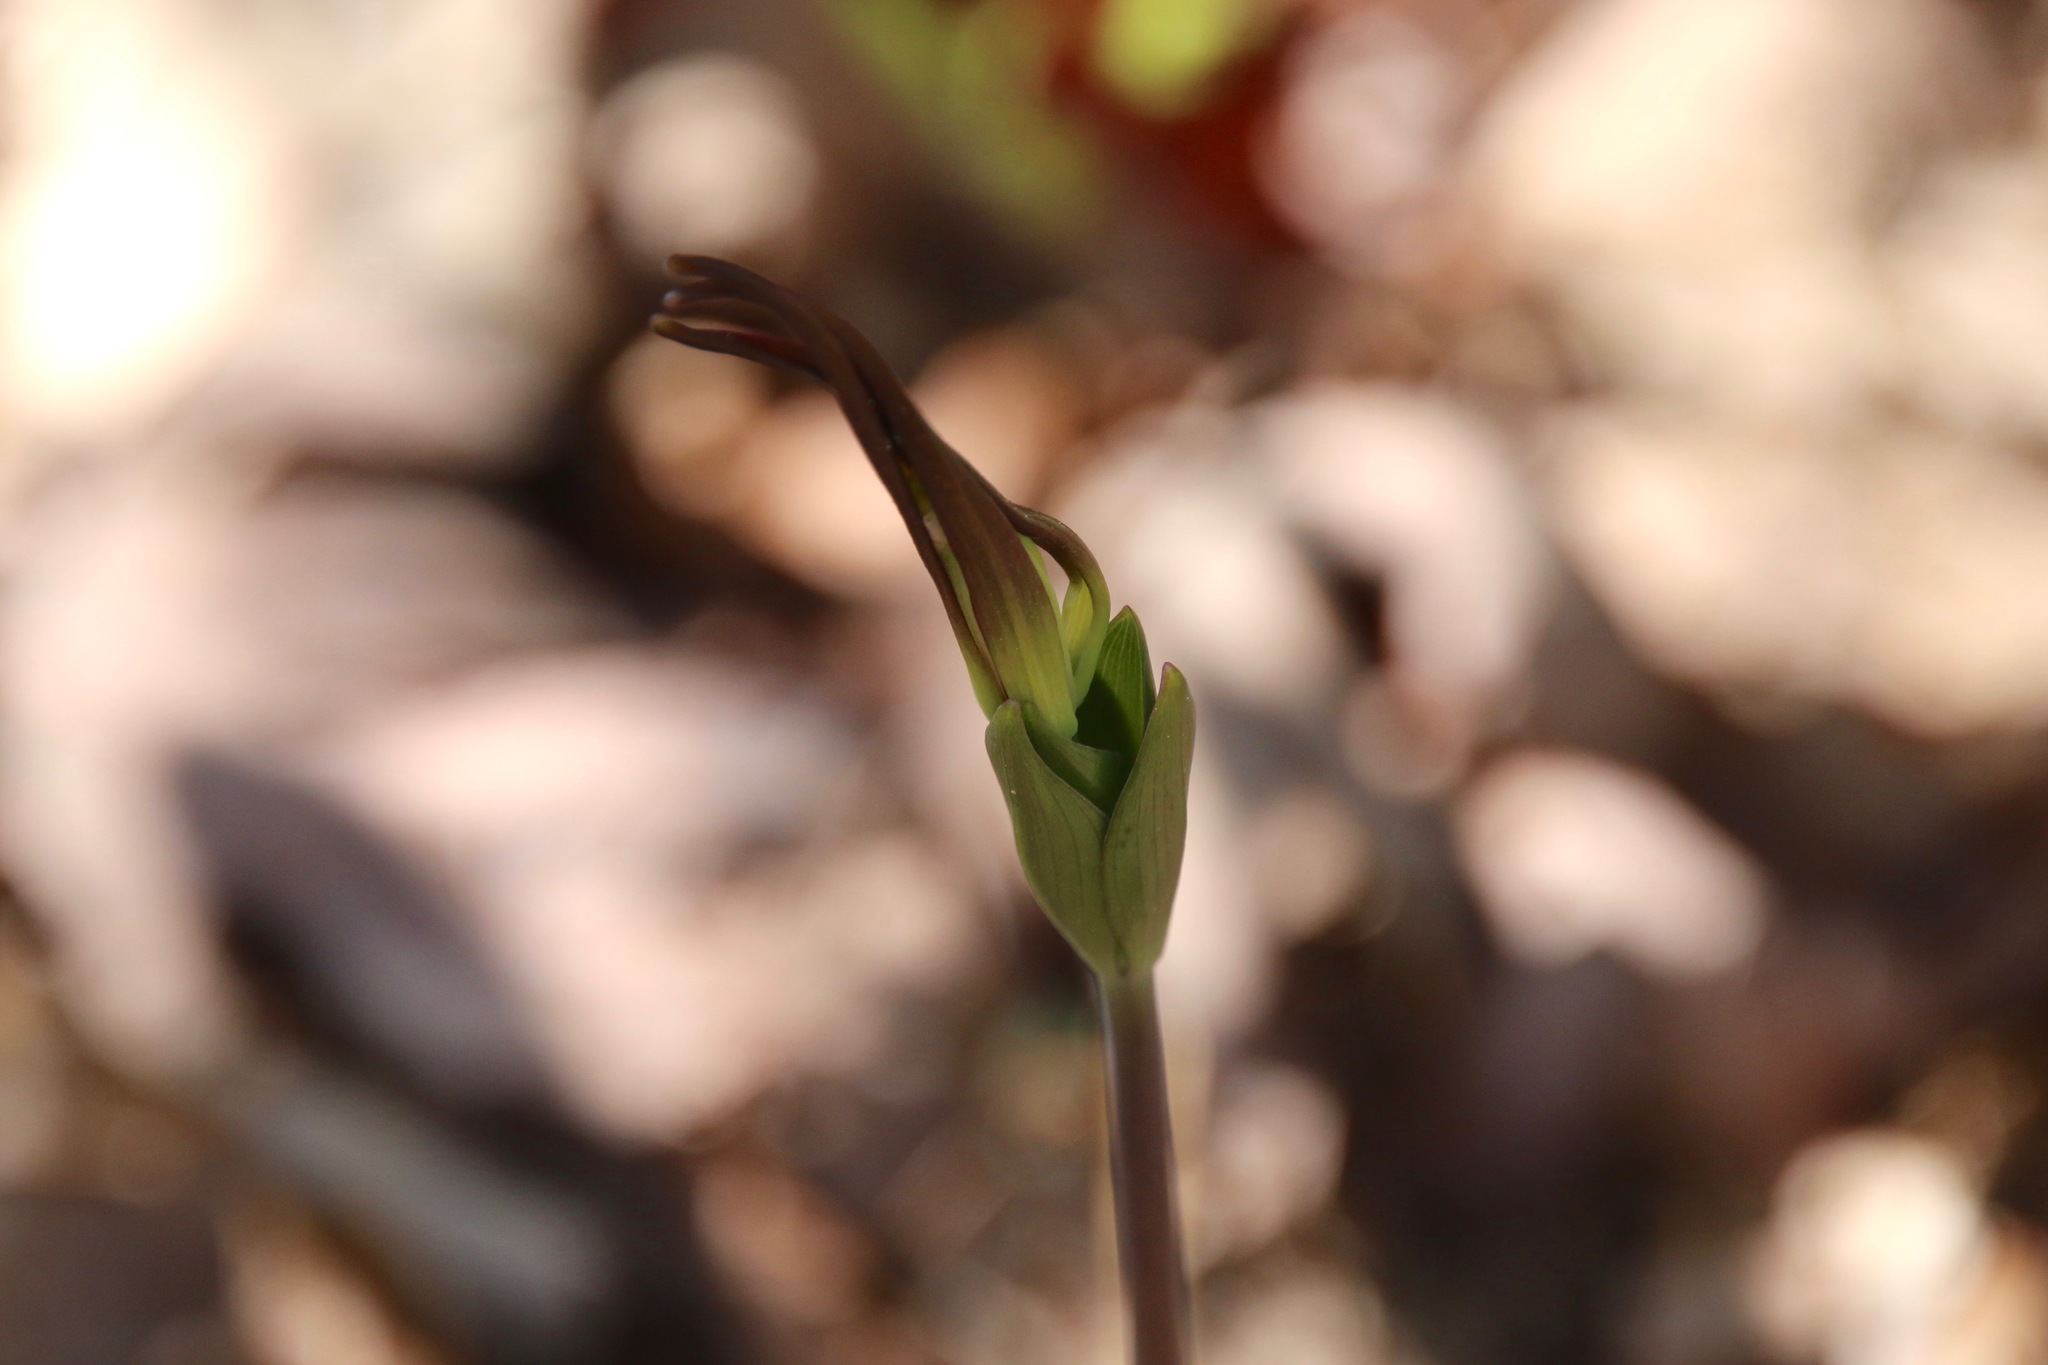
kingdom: Plantae
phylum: Tracheophyta
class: Liliopsida
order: Asparagales
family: Orchidaceae
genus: Isotria
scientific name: Isotria verticillata
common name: Large whorled pogonia
